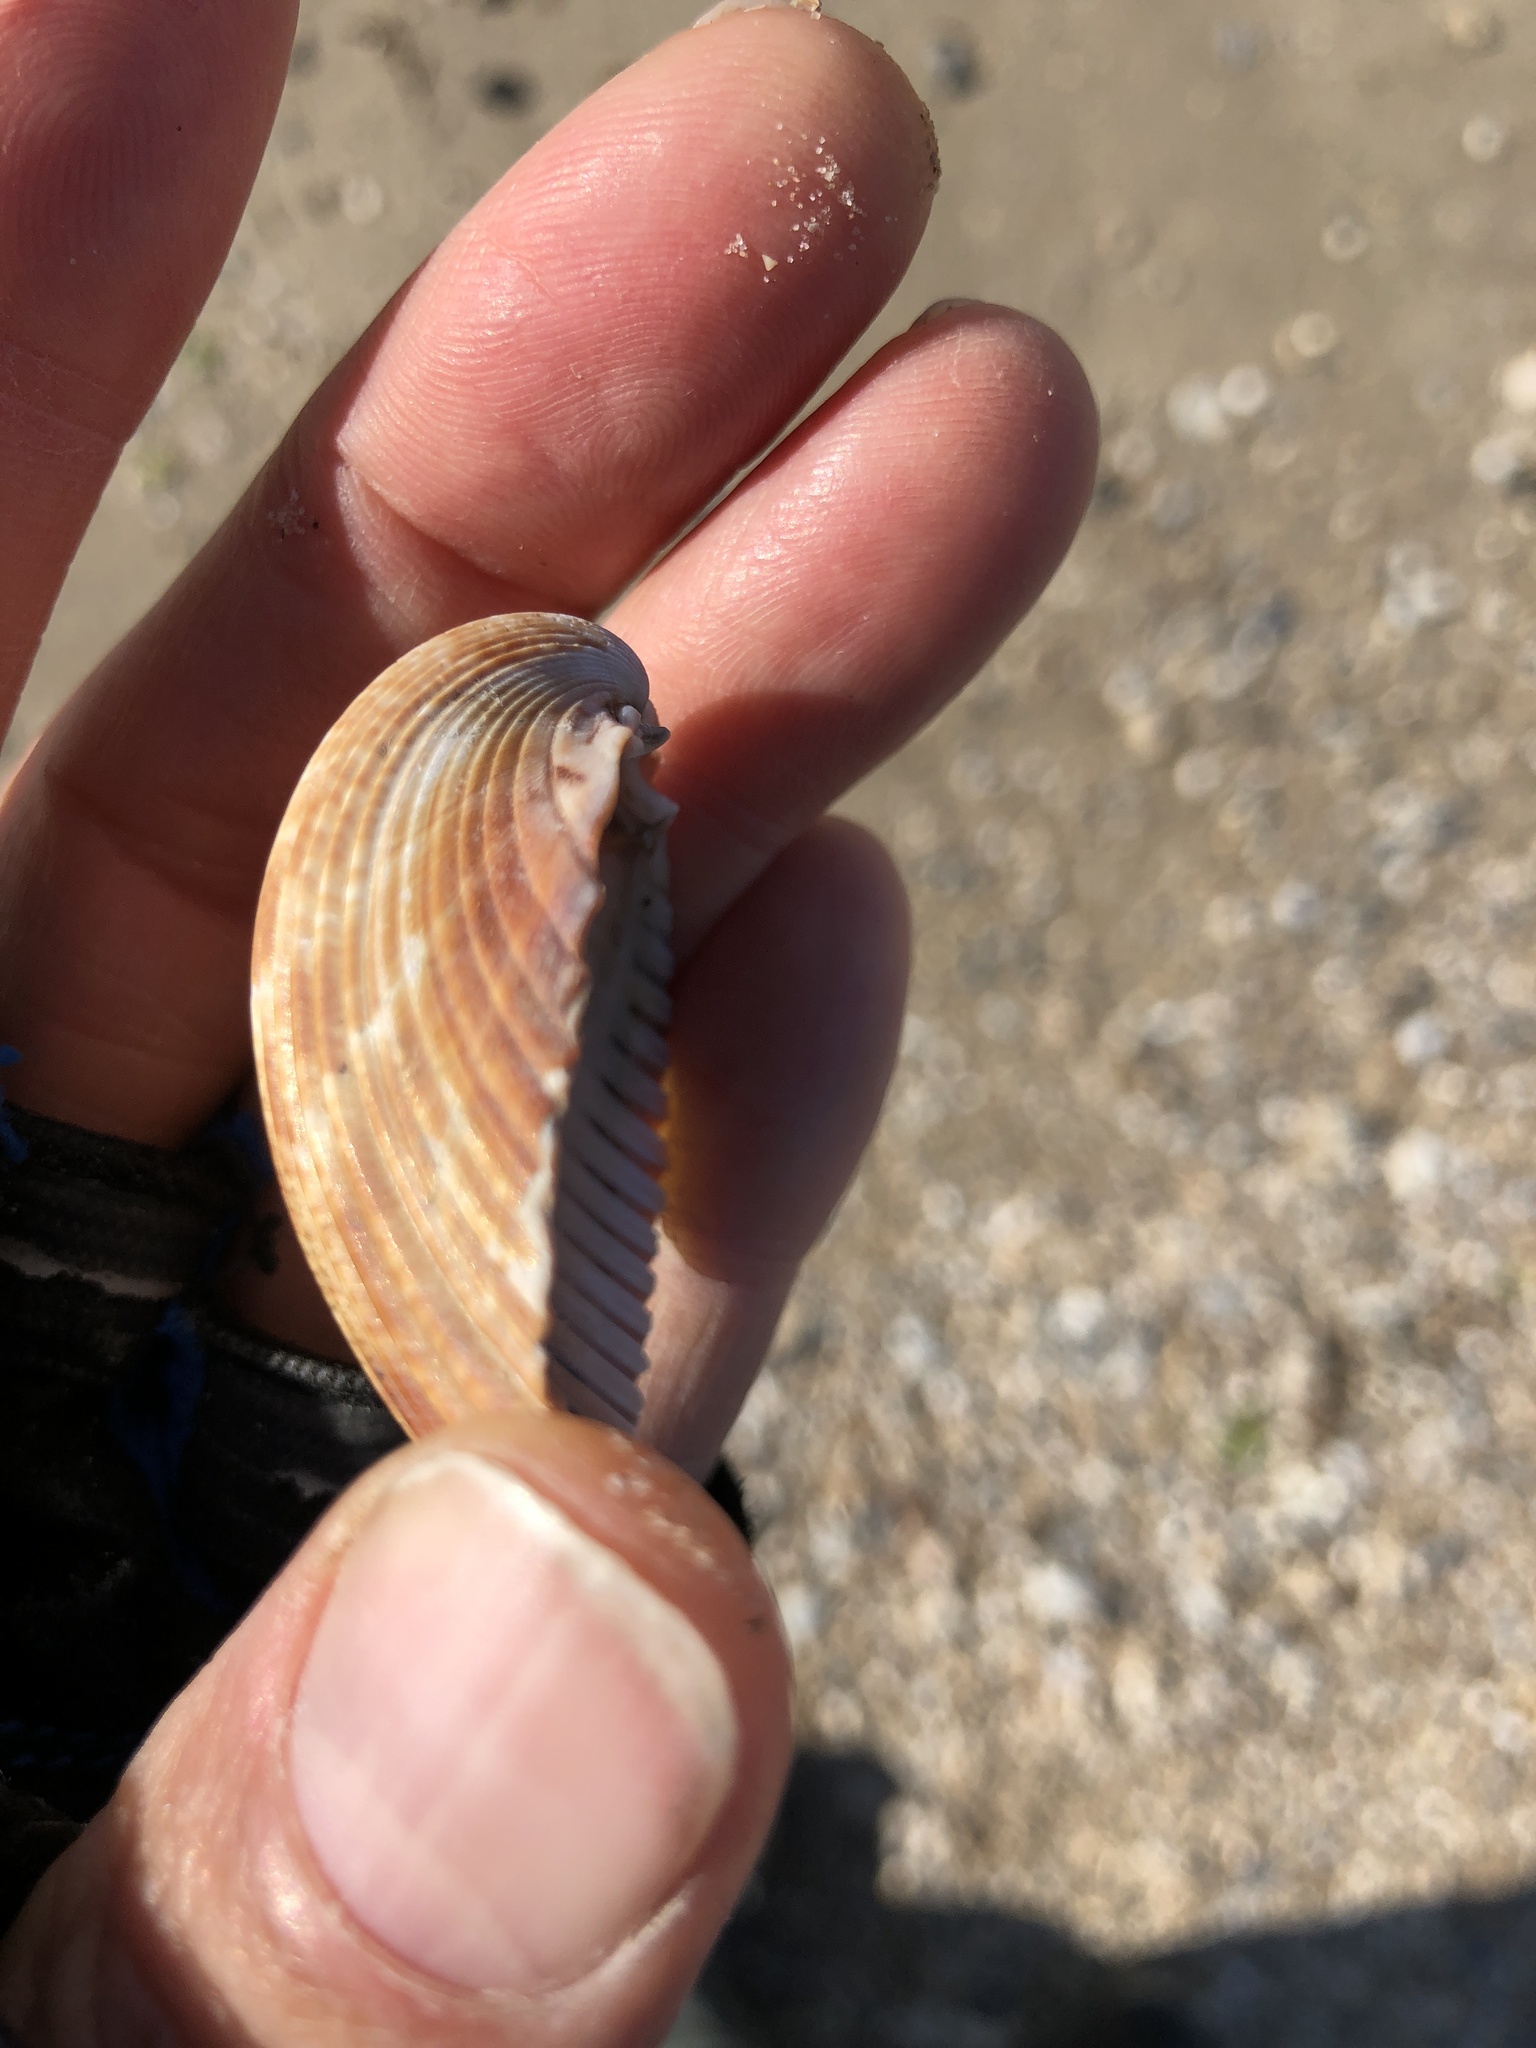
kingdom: Animalia
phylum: Mollusca
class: Bivalvia
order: Cardiida
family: Cardiidae
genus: Dinocardium
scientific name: Dinocardium robustum
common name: Atlantic giant cockle
